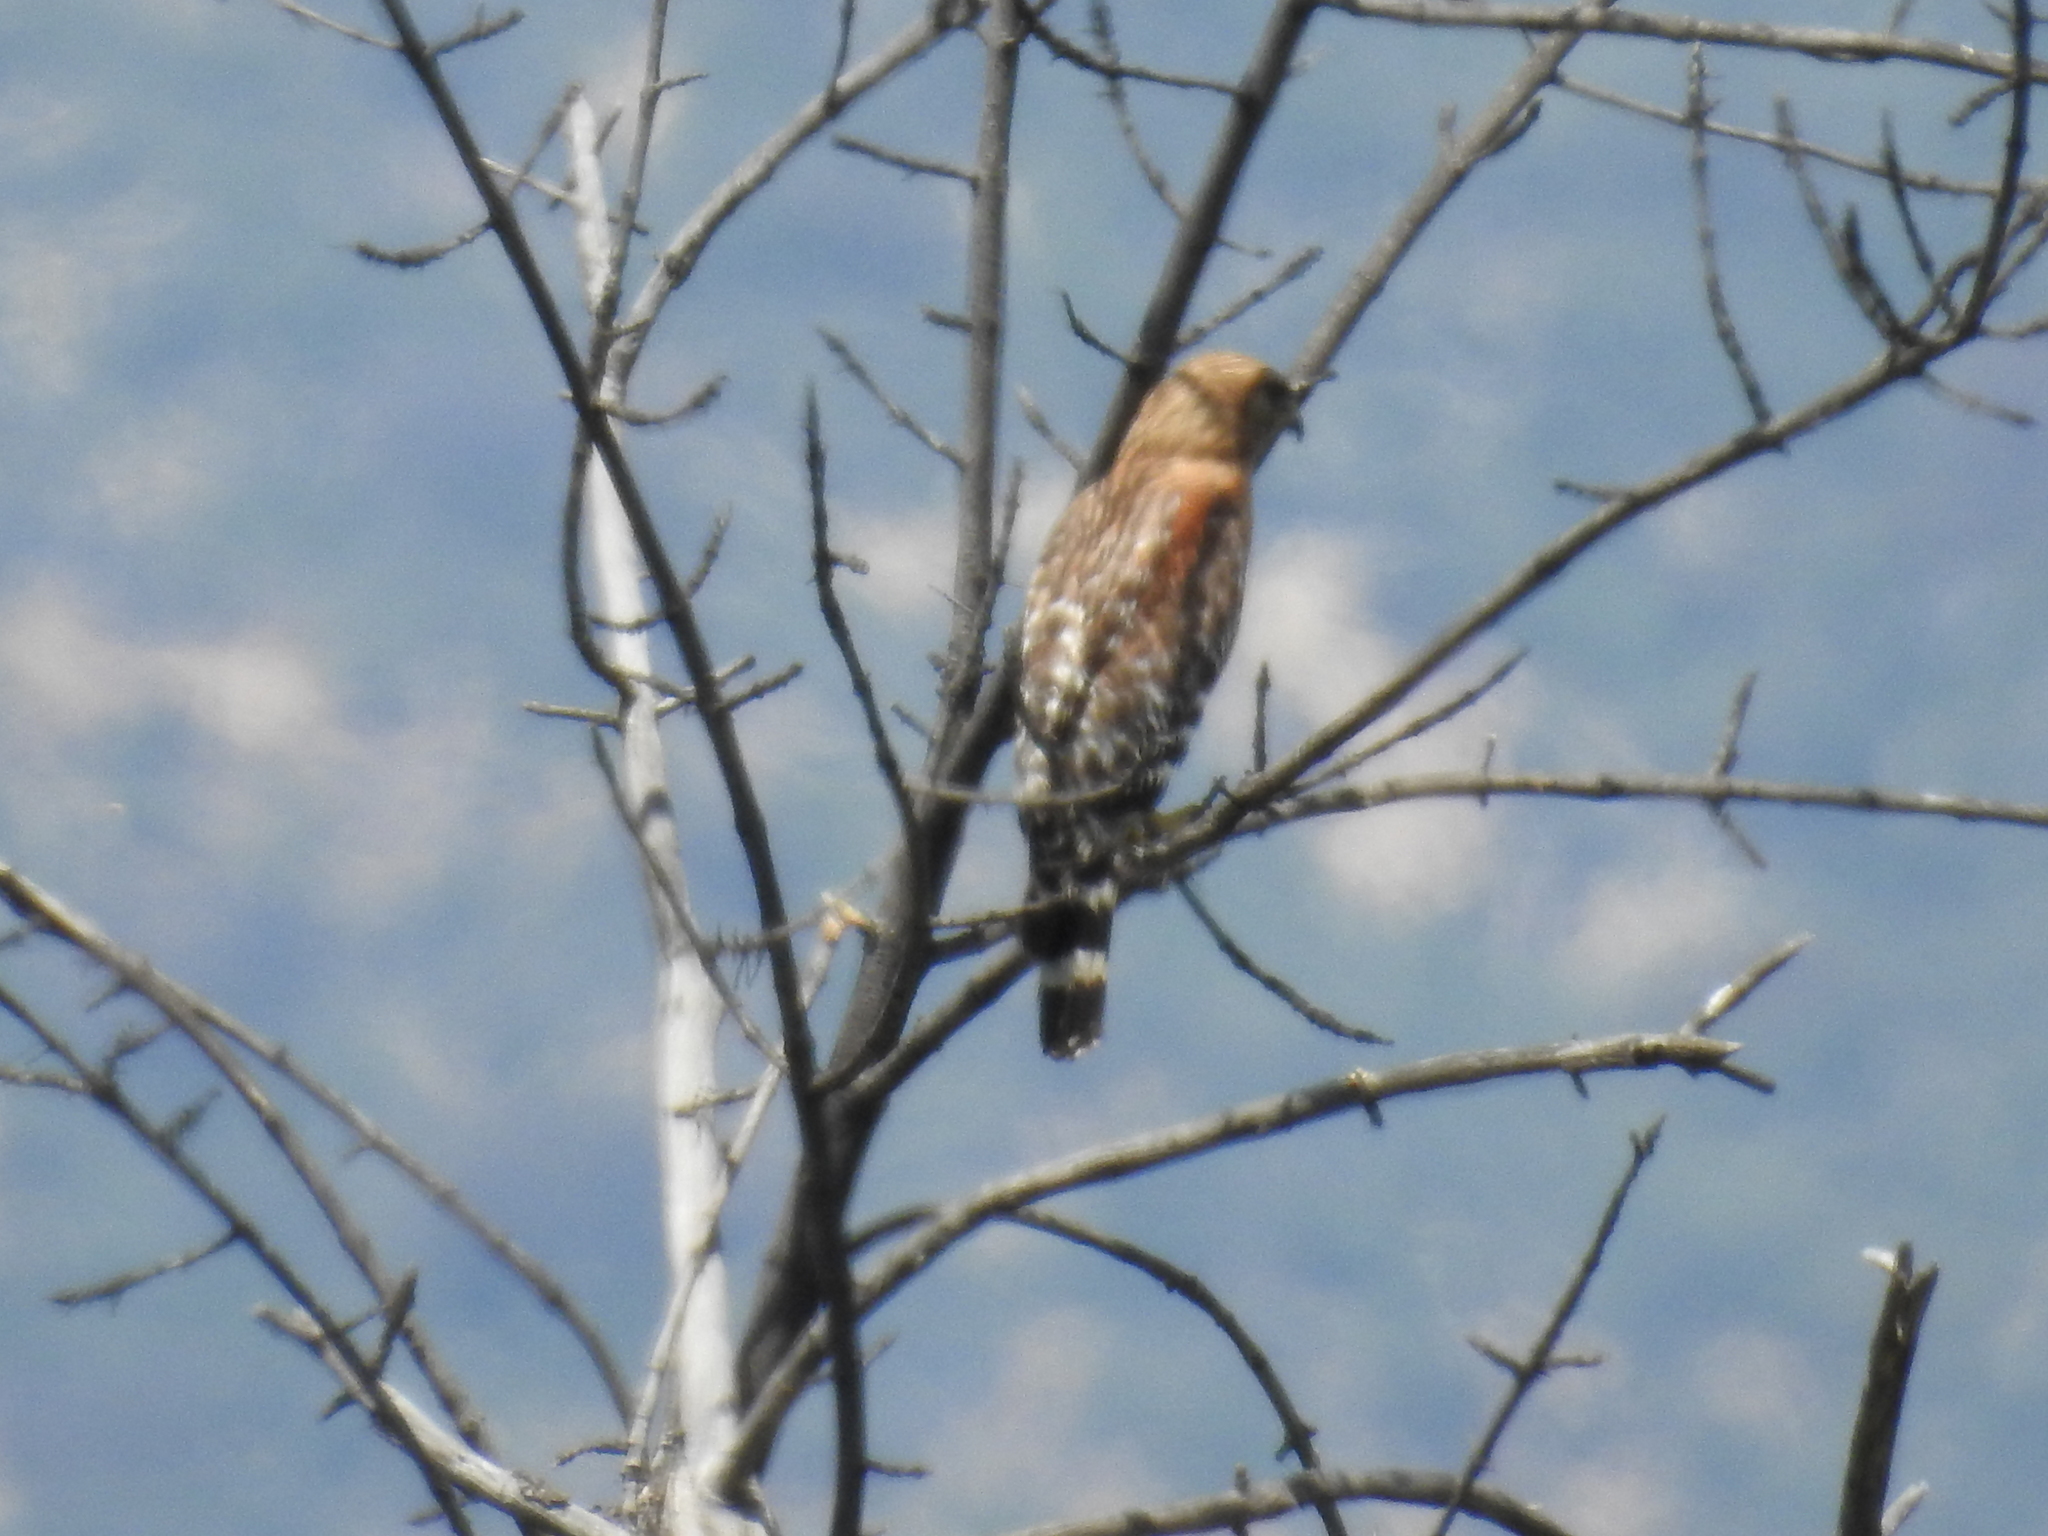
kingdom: Animalia
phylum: Chordata
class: Aves
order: Accipitriformes
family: Accipitridae
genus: Buteo
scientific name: Buteo lineatus
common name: Red-shouldered hawk
